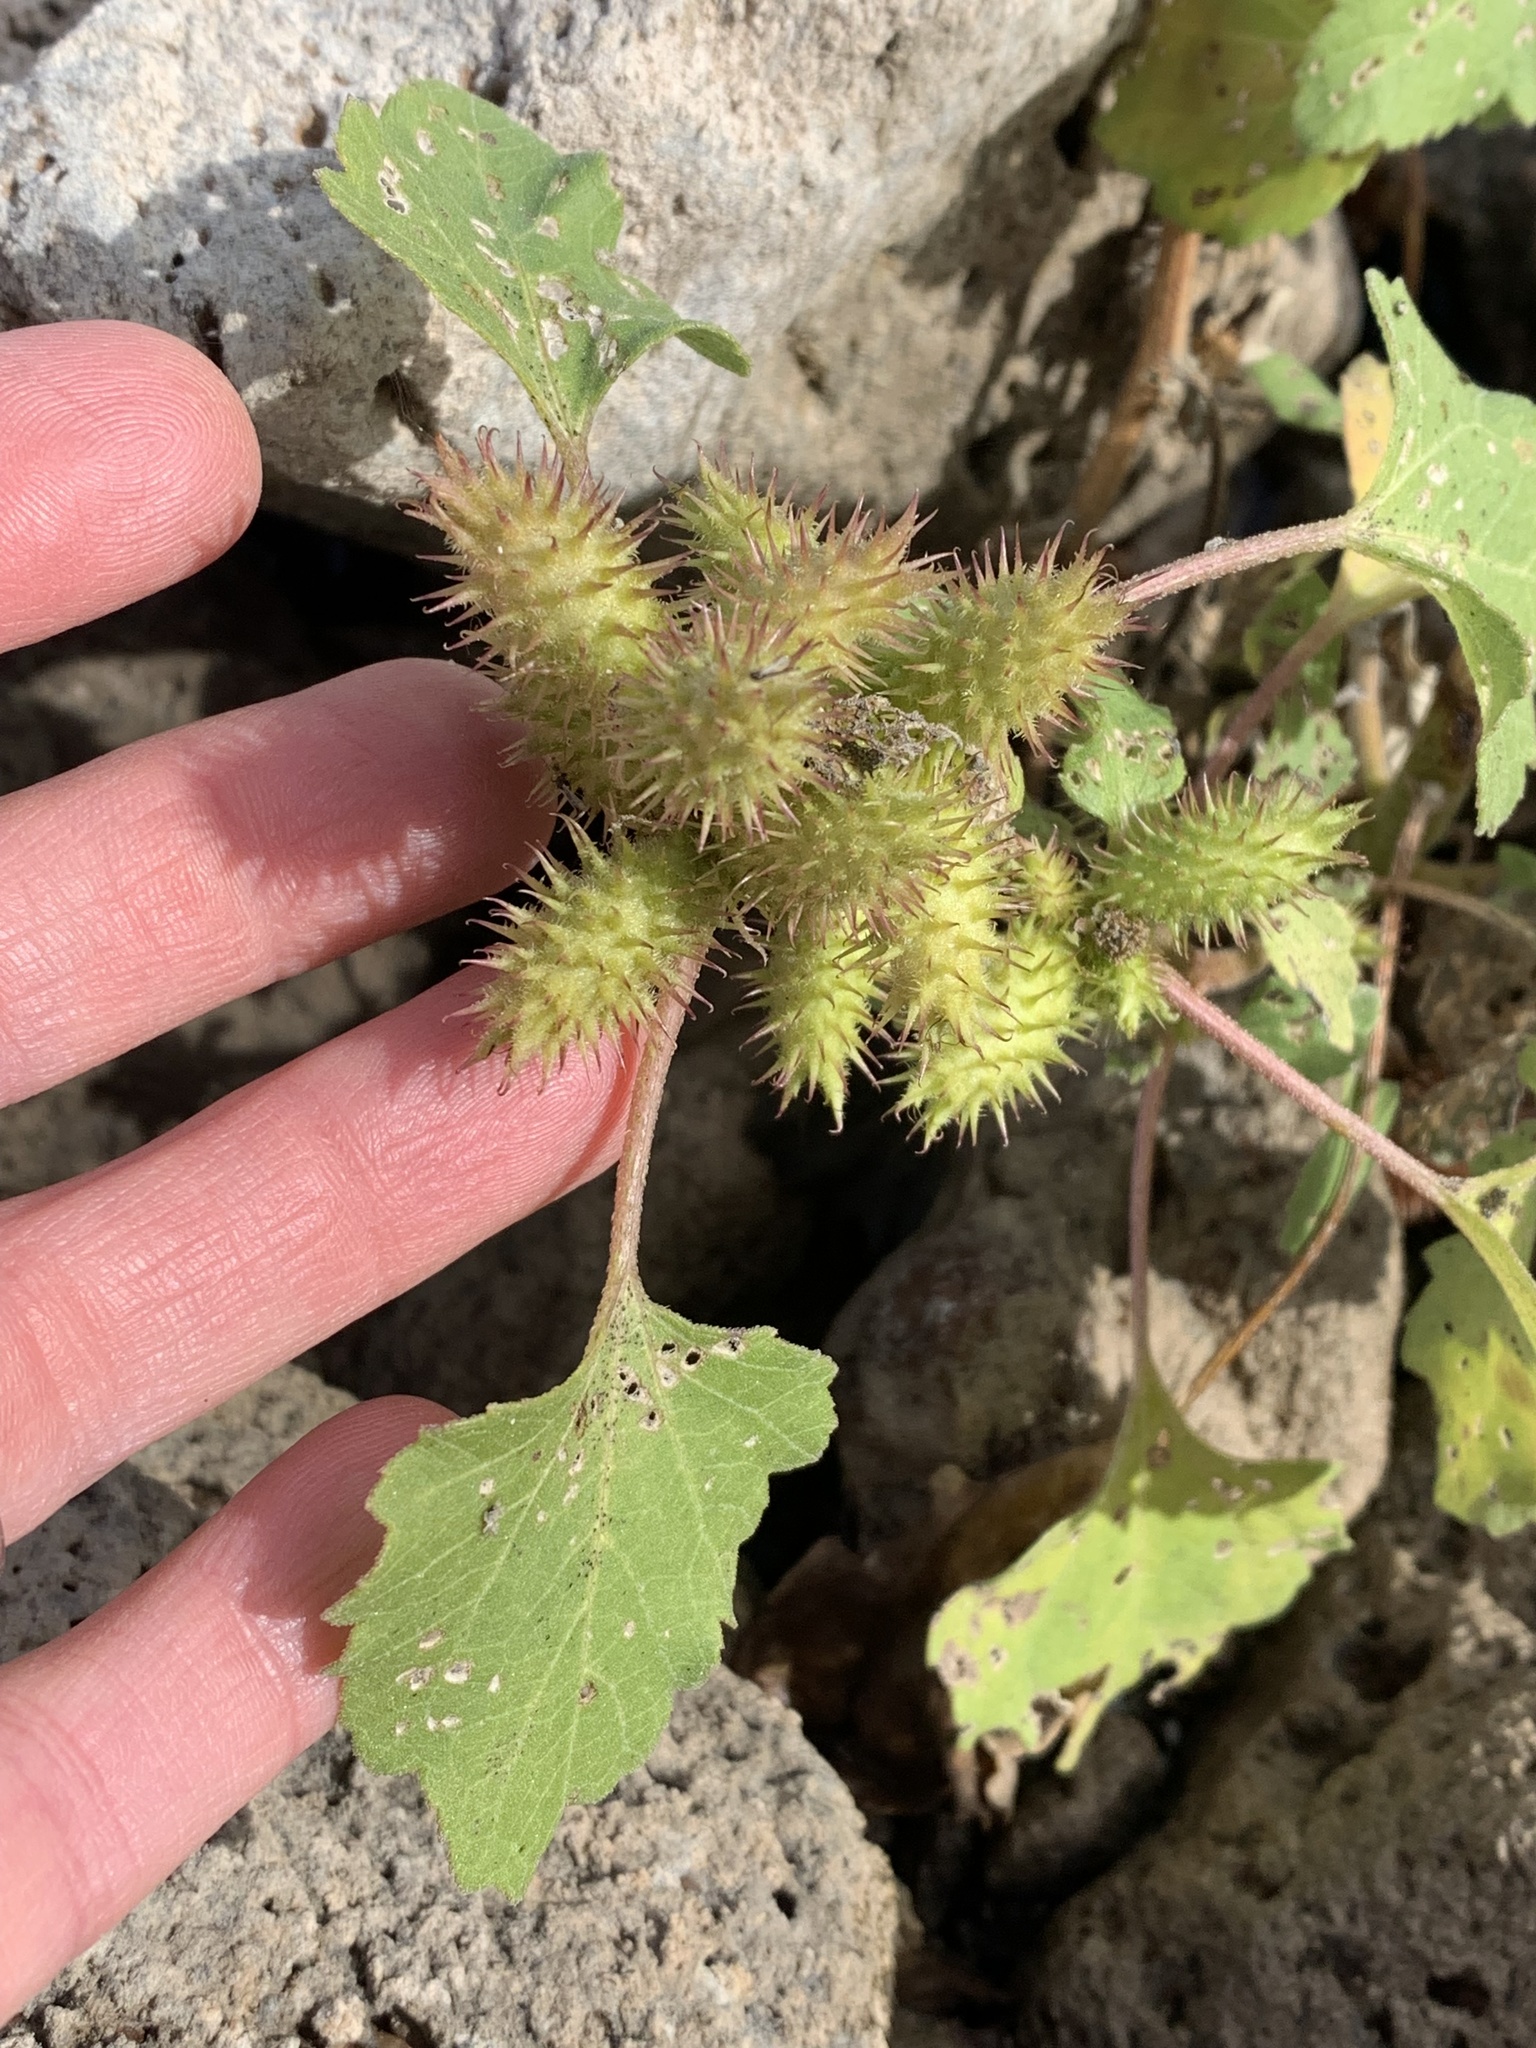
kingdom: Plantae
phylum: Tracheophyta
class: Magnoliopsida
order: Asterales
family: Asteraceae
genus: Xanthium
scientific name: Xanthium strumarium
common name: Rough cocklebur
